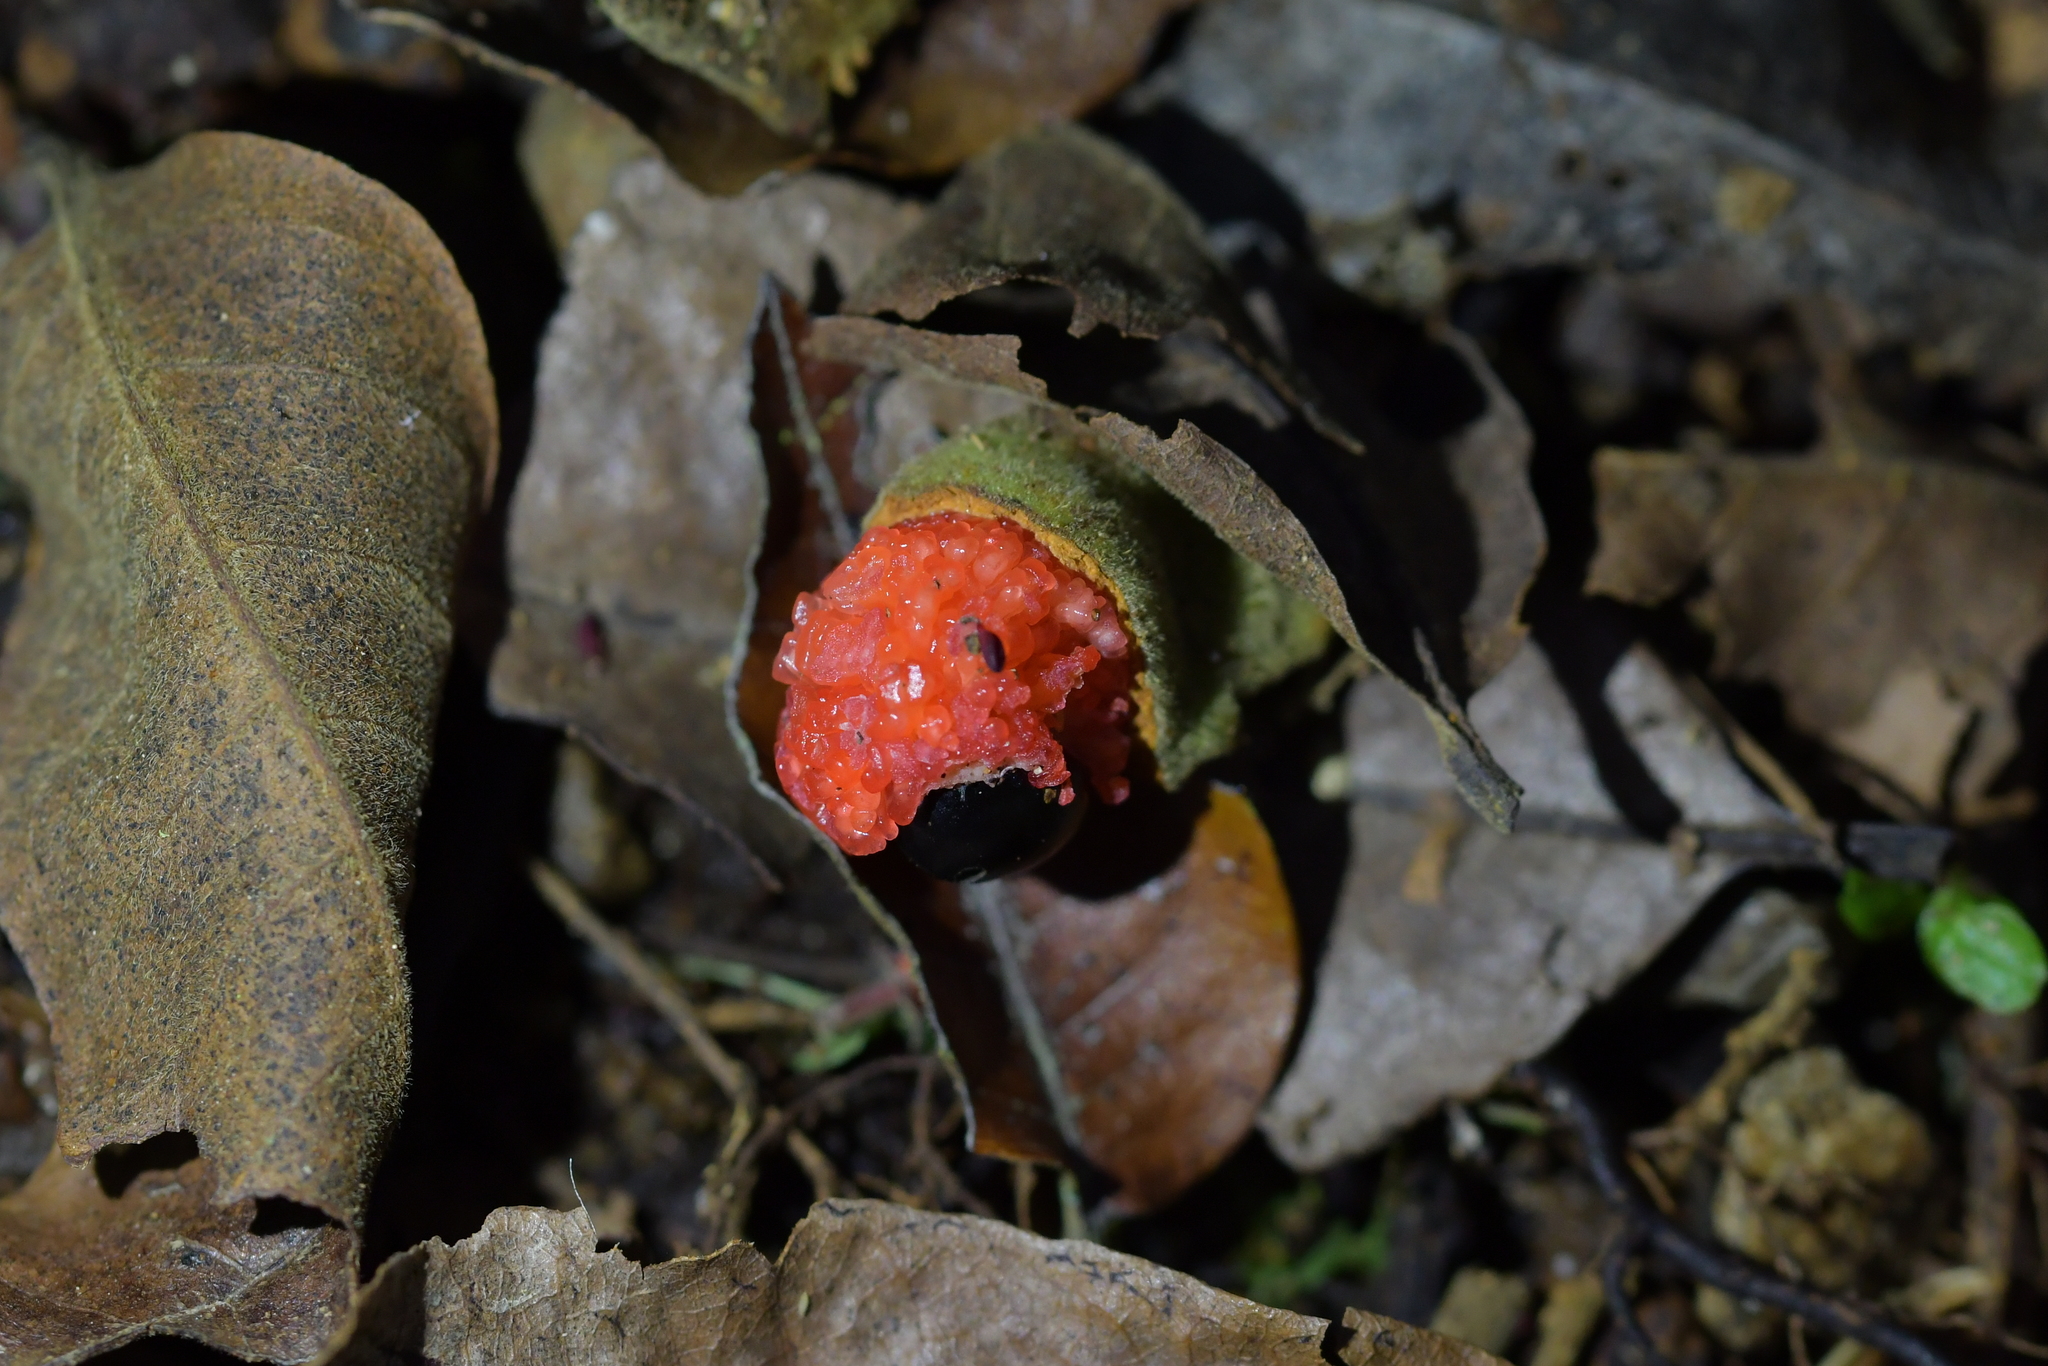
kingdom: Plantae
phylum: Tracheophyta
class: Magnoliopsida
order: Sapindales
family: Sapindaceae
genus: Alectryon
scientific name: Alectryon excelsus
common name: Three kings titoki
